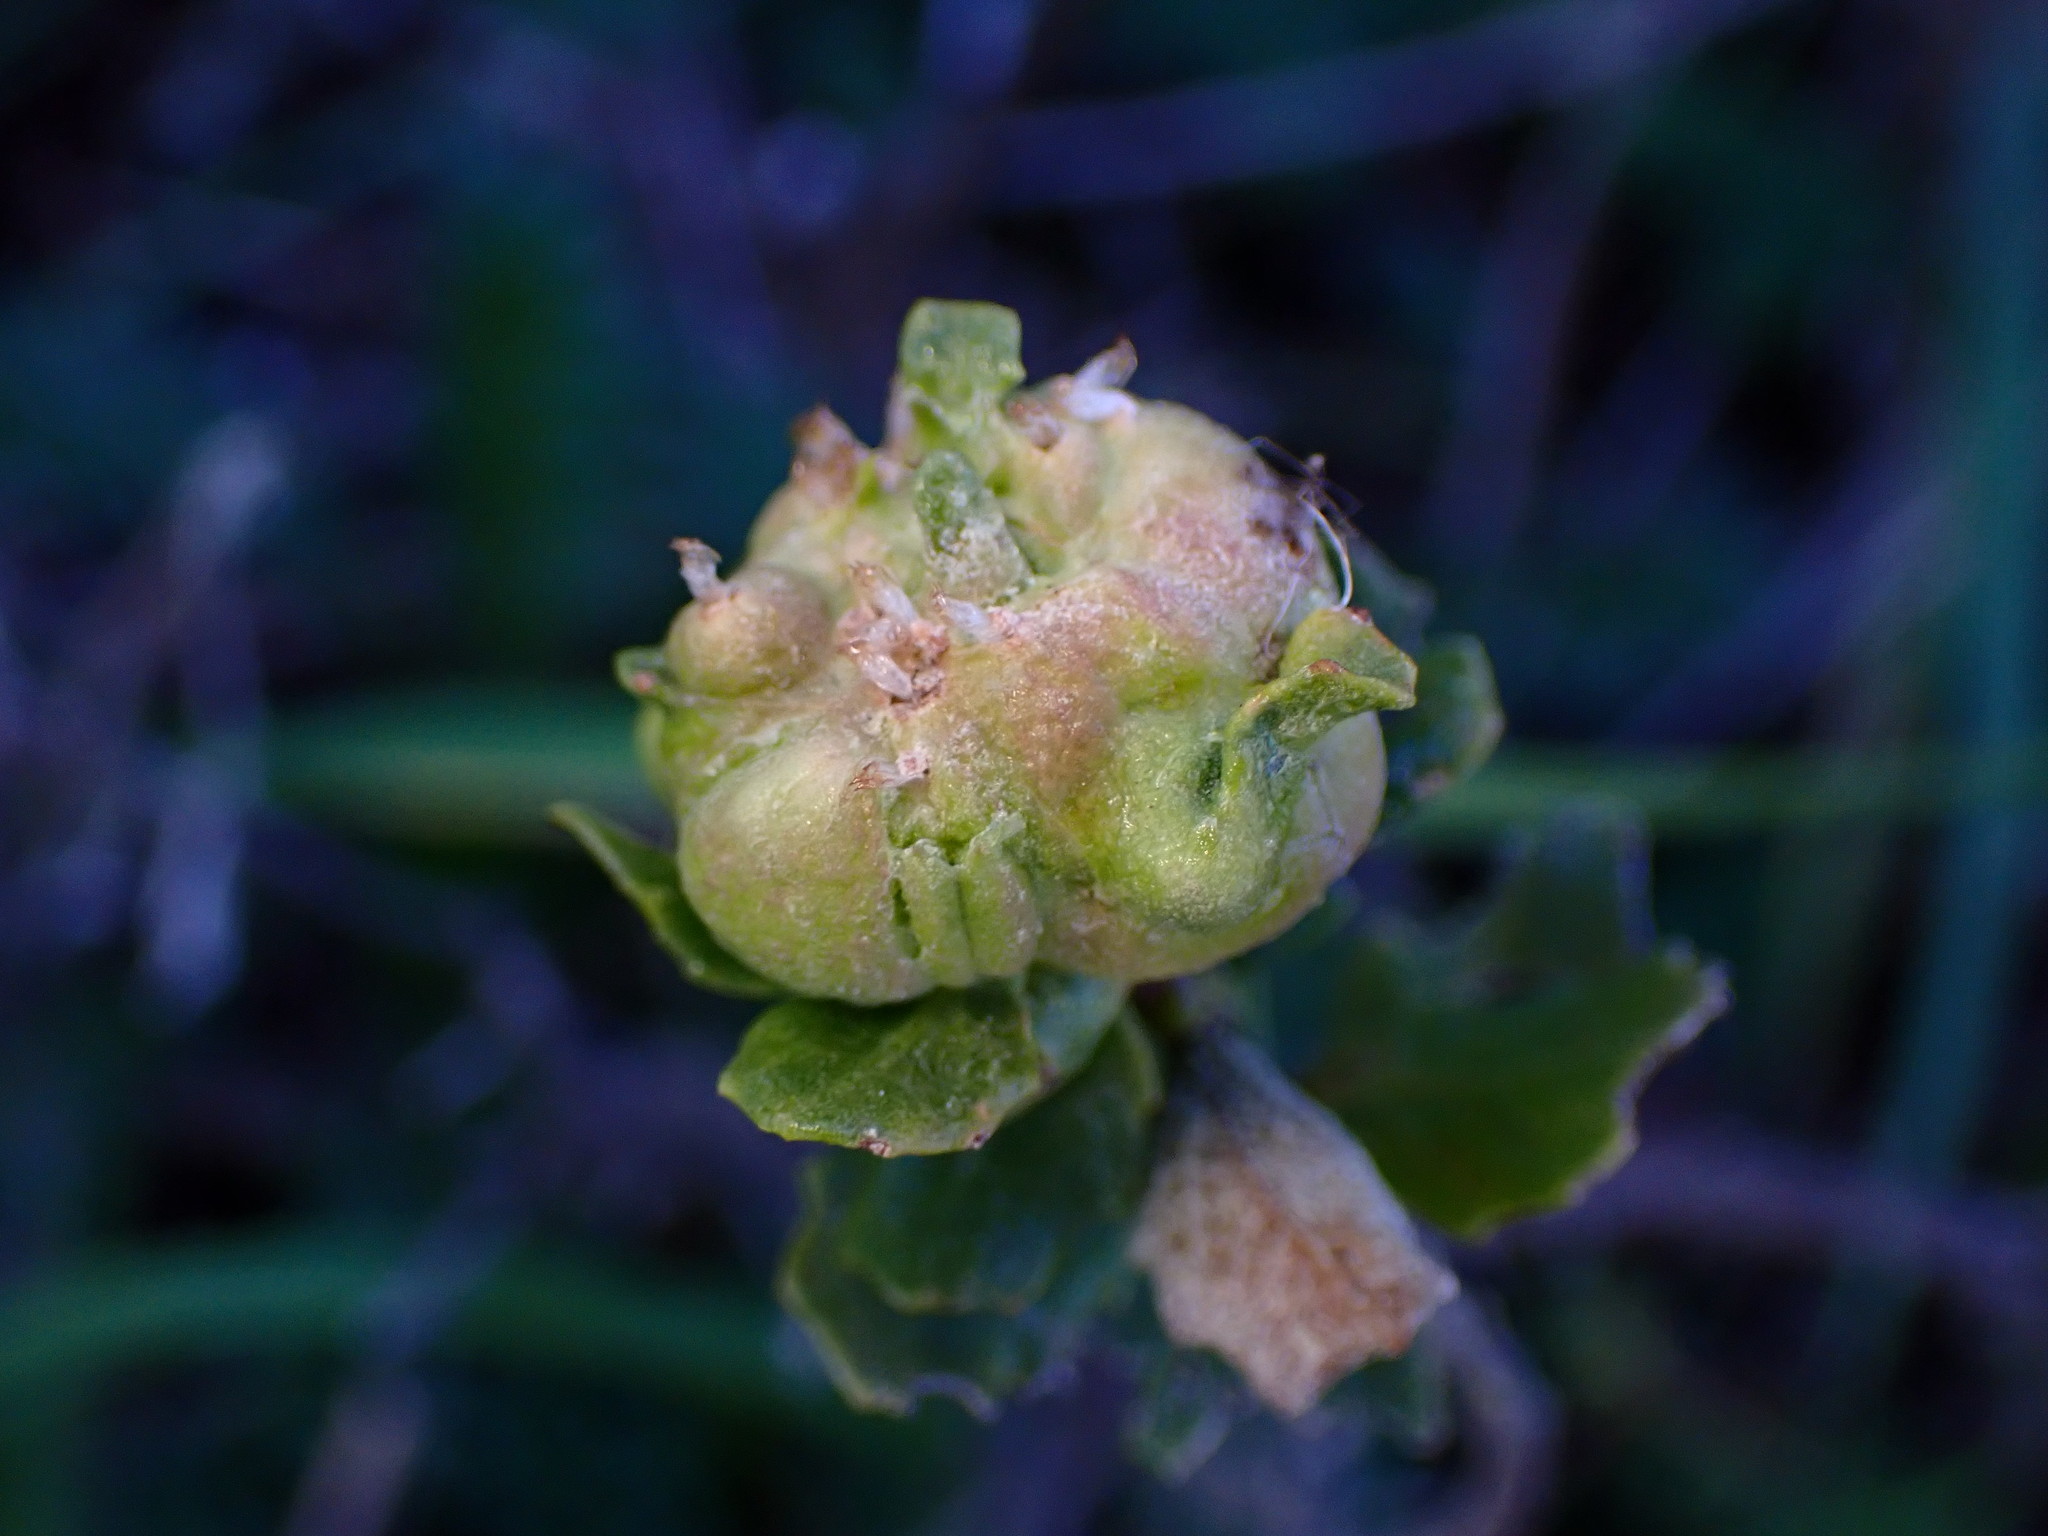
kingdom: Animalia
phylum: Arthropoda
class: Insecta
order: Diptera
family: Cecidomyiidae
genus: Rhopalomyia
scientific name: Rhopalomyia californica
